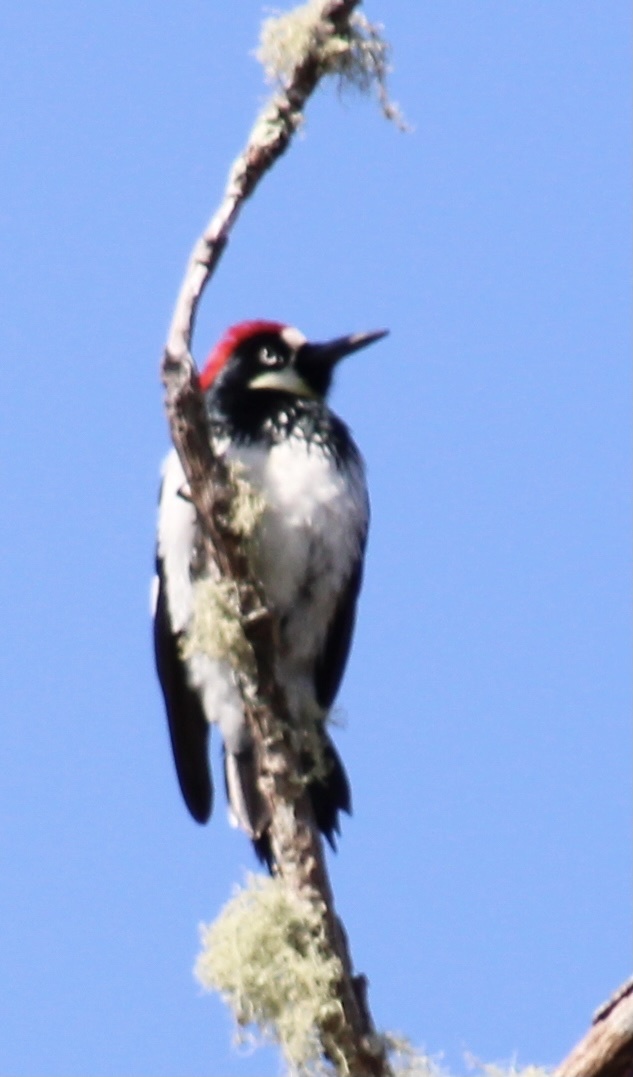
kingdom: Animalia
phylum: Chordata
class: Aves
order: Piciformes
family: Picidae
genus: Melanerpes
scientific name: Melanerpes formicivorus
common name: Acorn woodpecker
